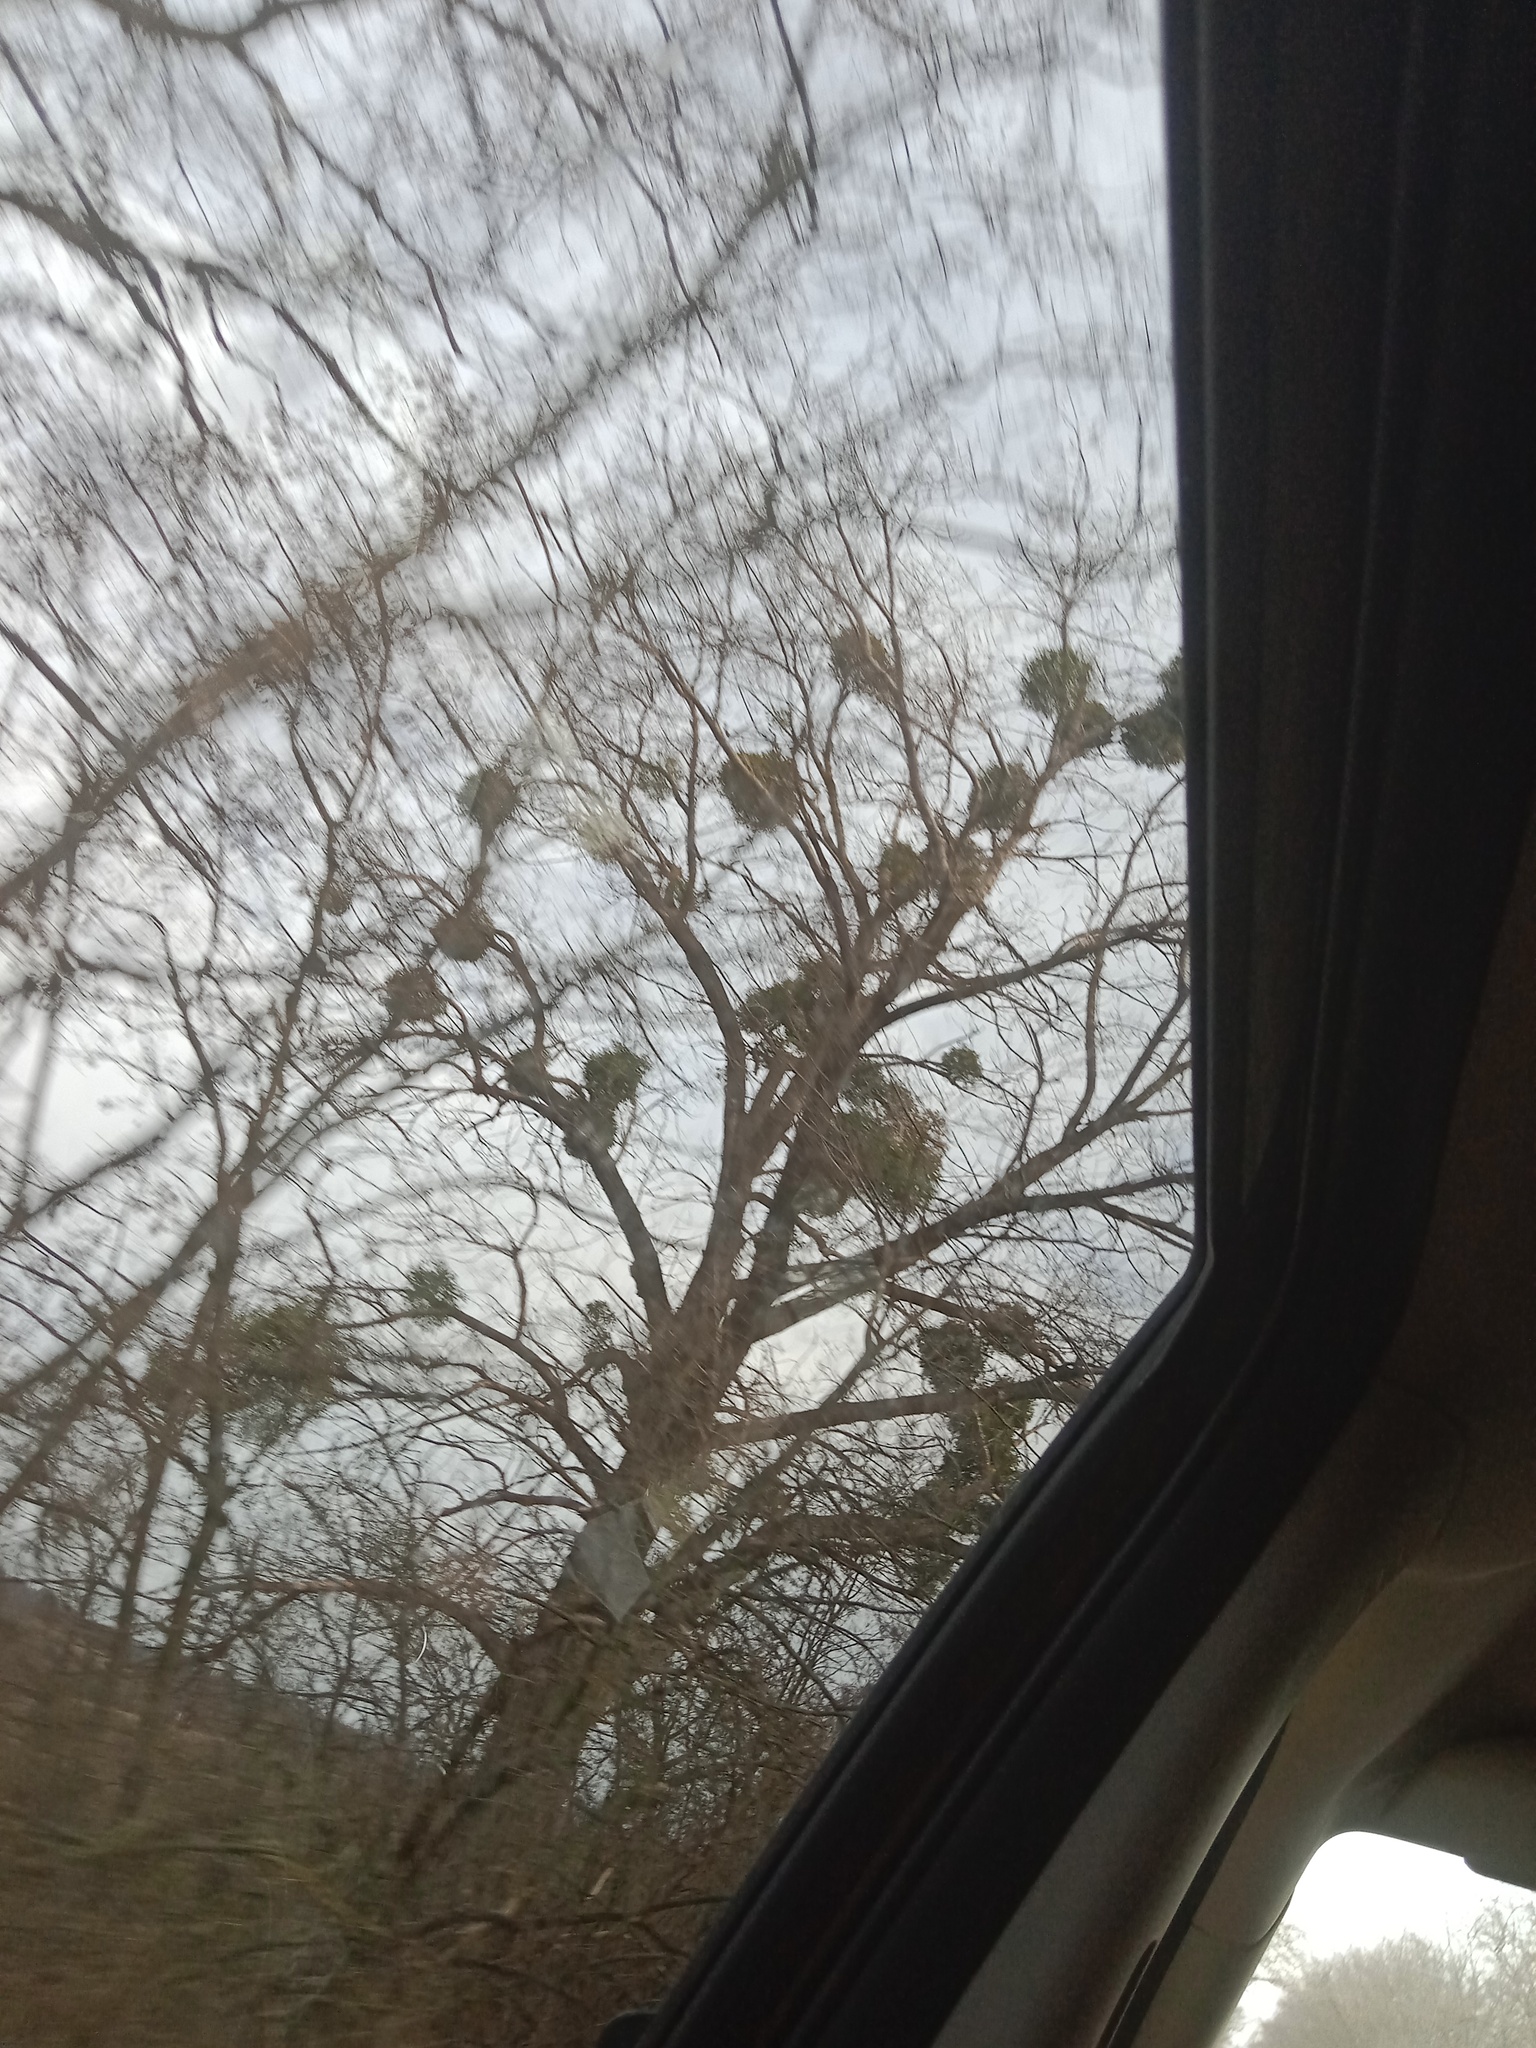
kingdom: Plantae
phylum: Tracheophyta
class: Magnoliopsida
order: Santalales
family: Viscaceae
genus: Viscum
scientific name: Viscum album
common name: Mistletoe
